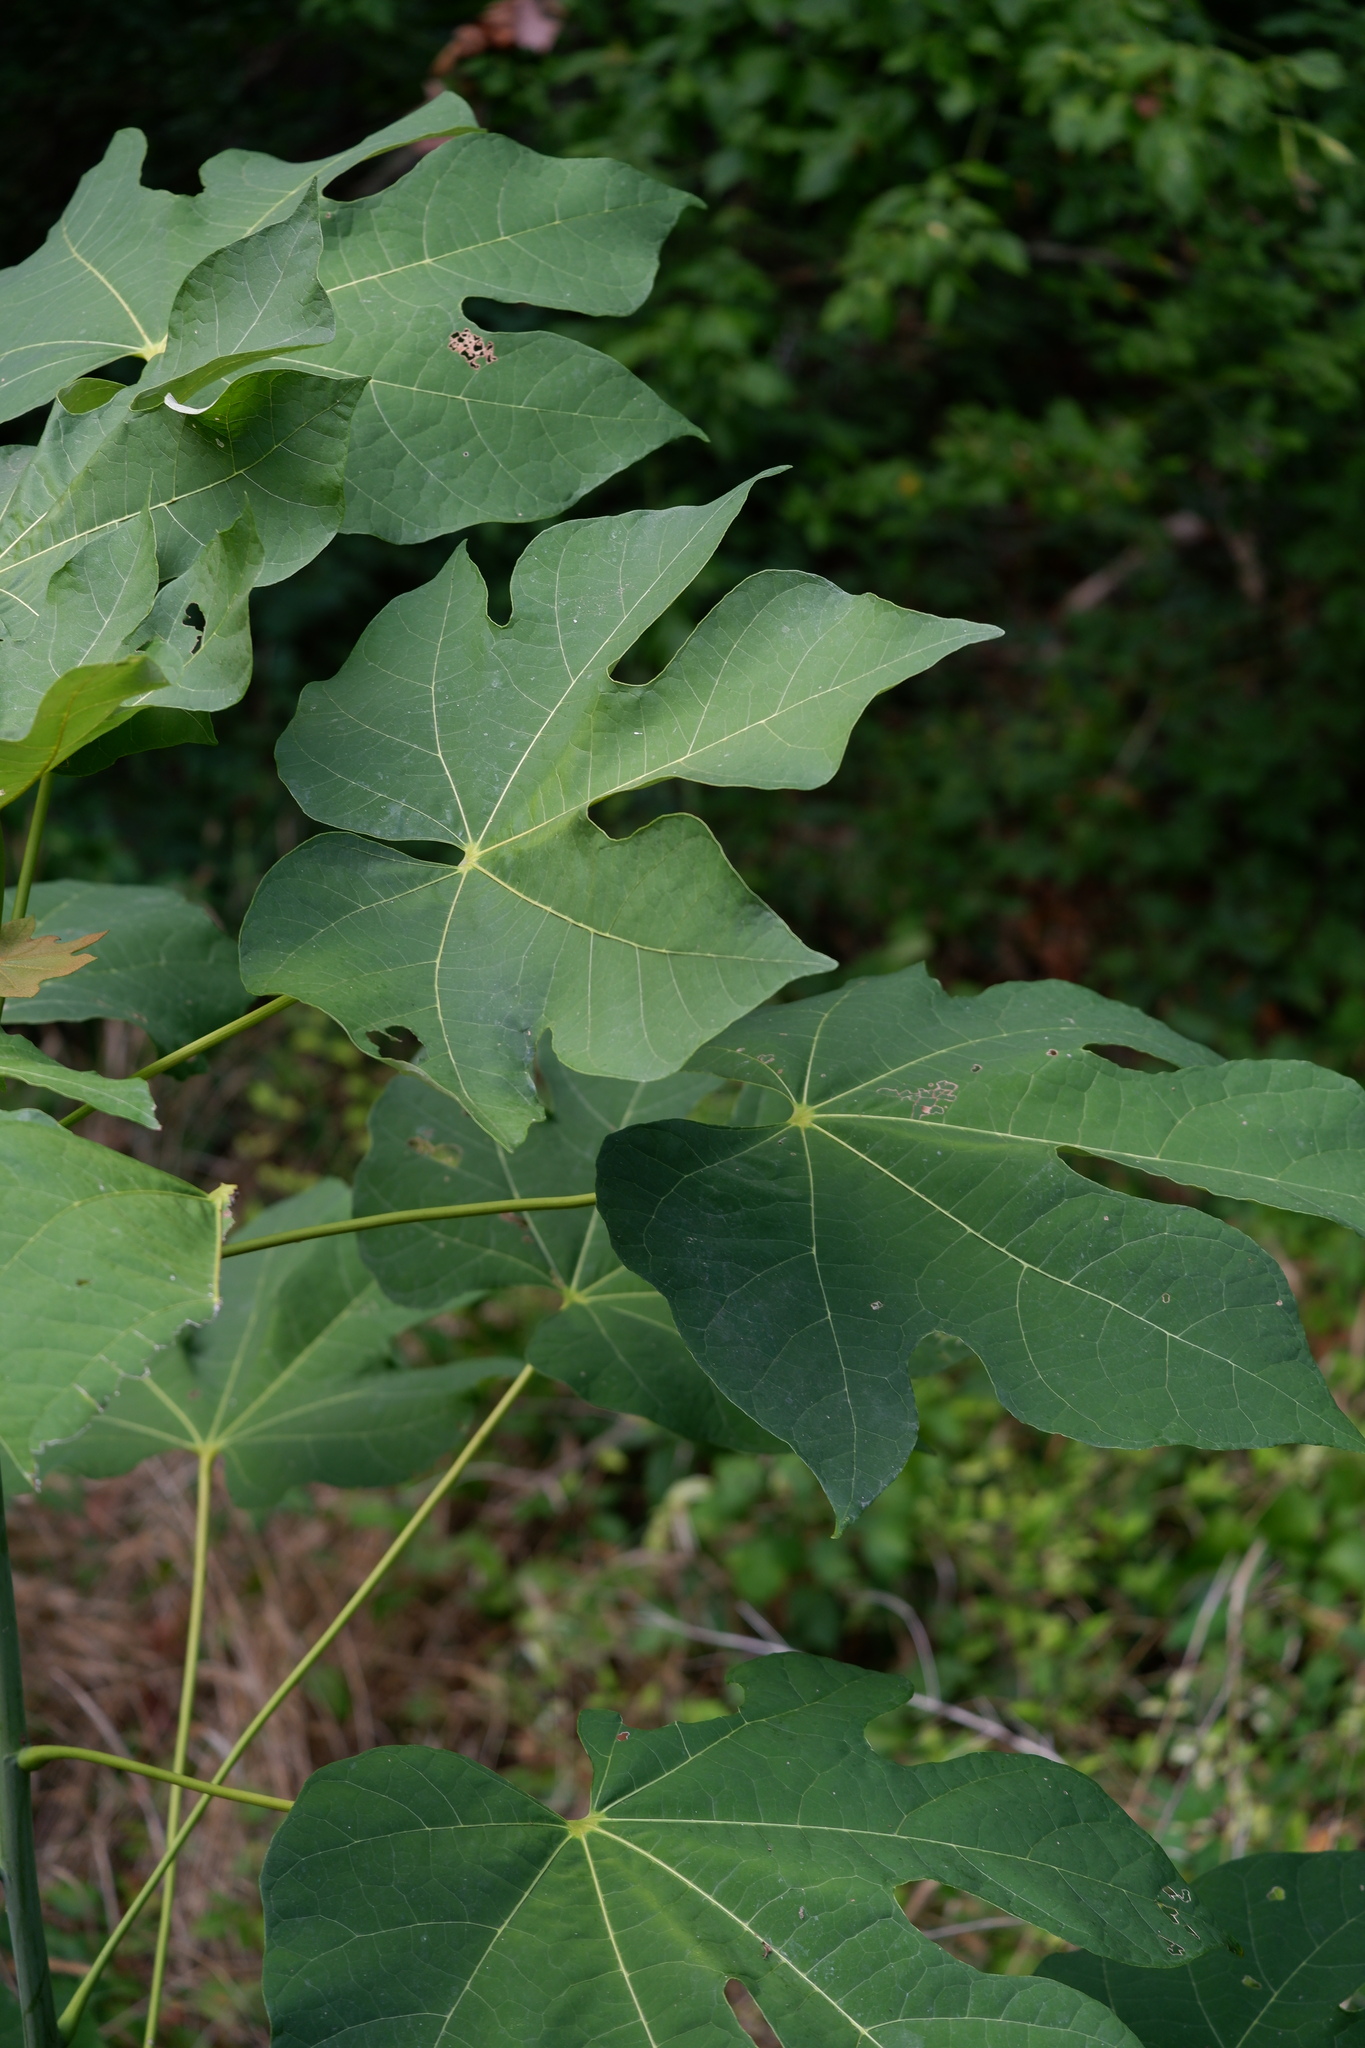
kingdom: Plantae
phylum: Tracheophyta
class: Magnoliopsida
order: Malvales
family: Malvaceae
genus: Firmiana
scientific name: Firmiana simplex
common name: Chinese parasoltree
